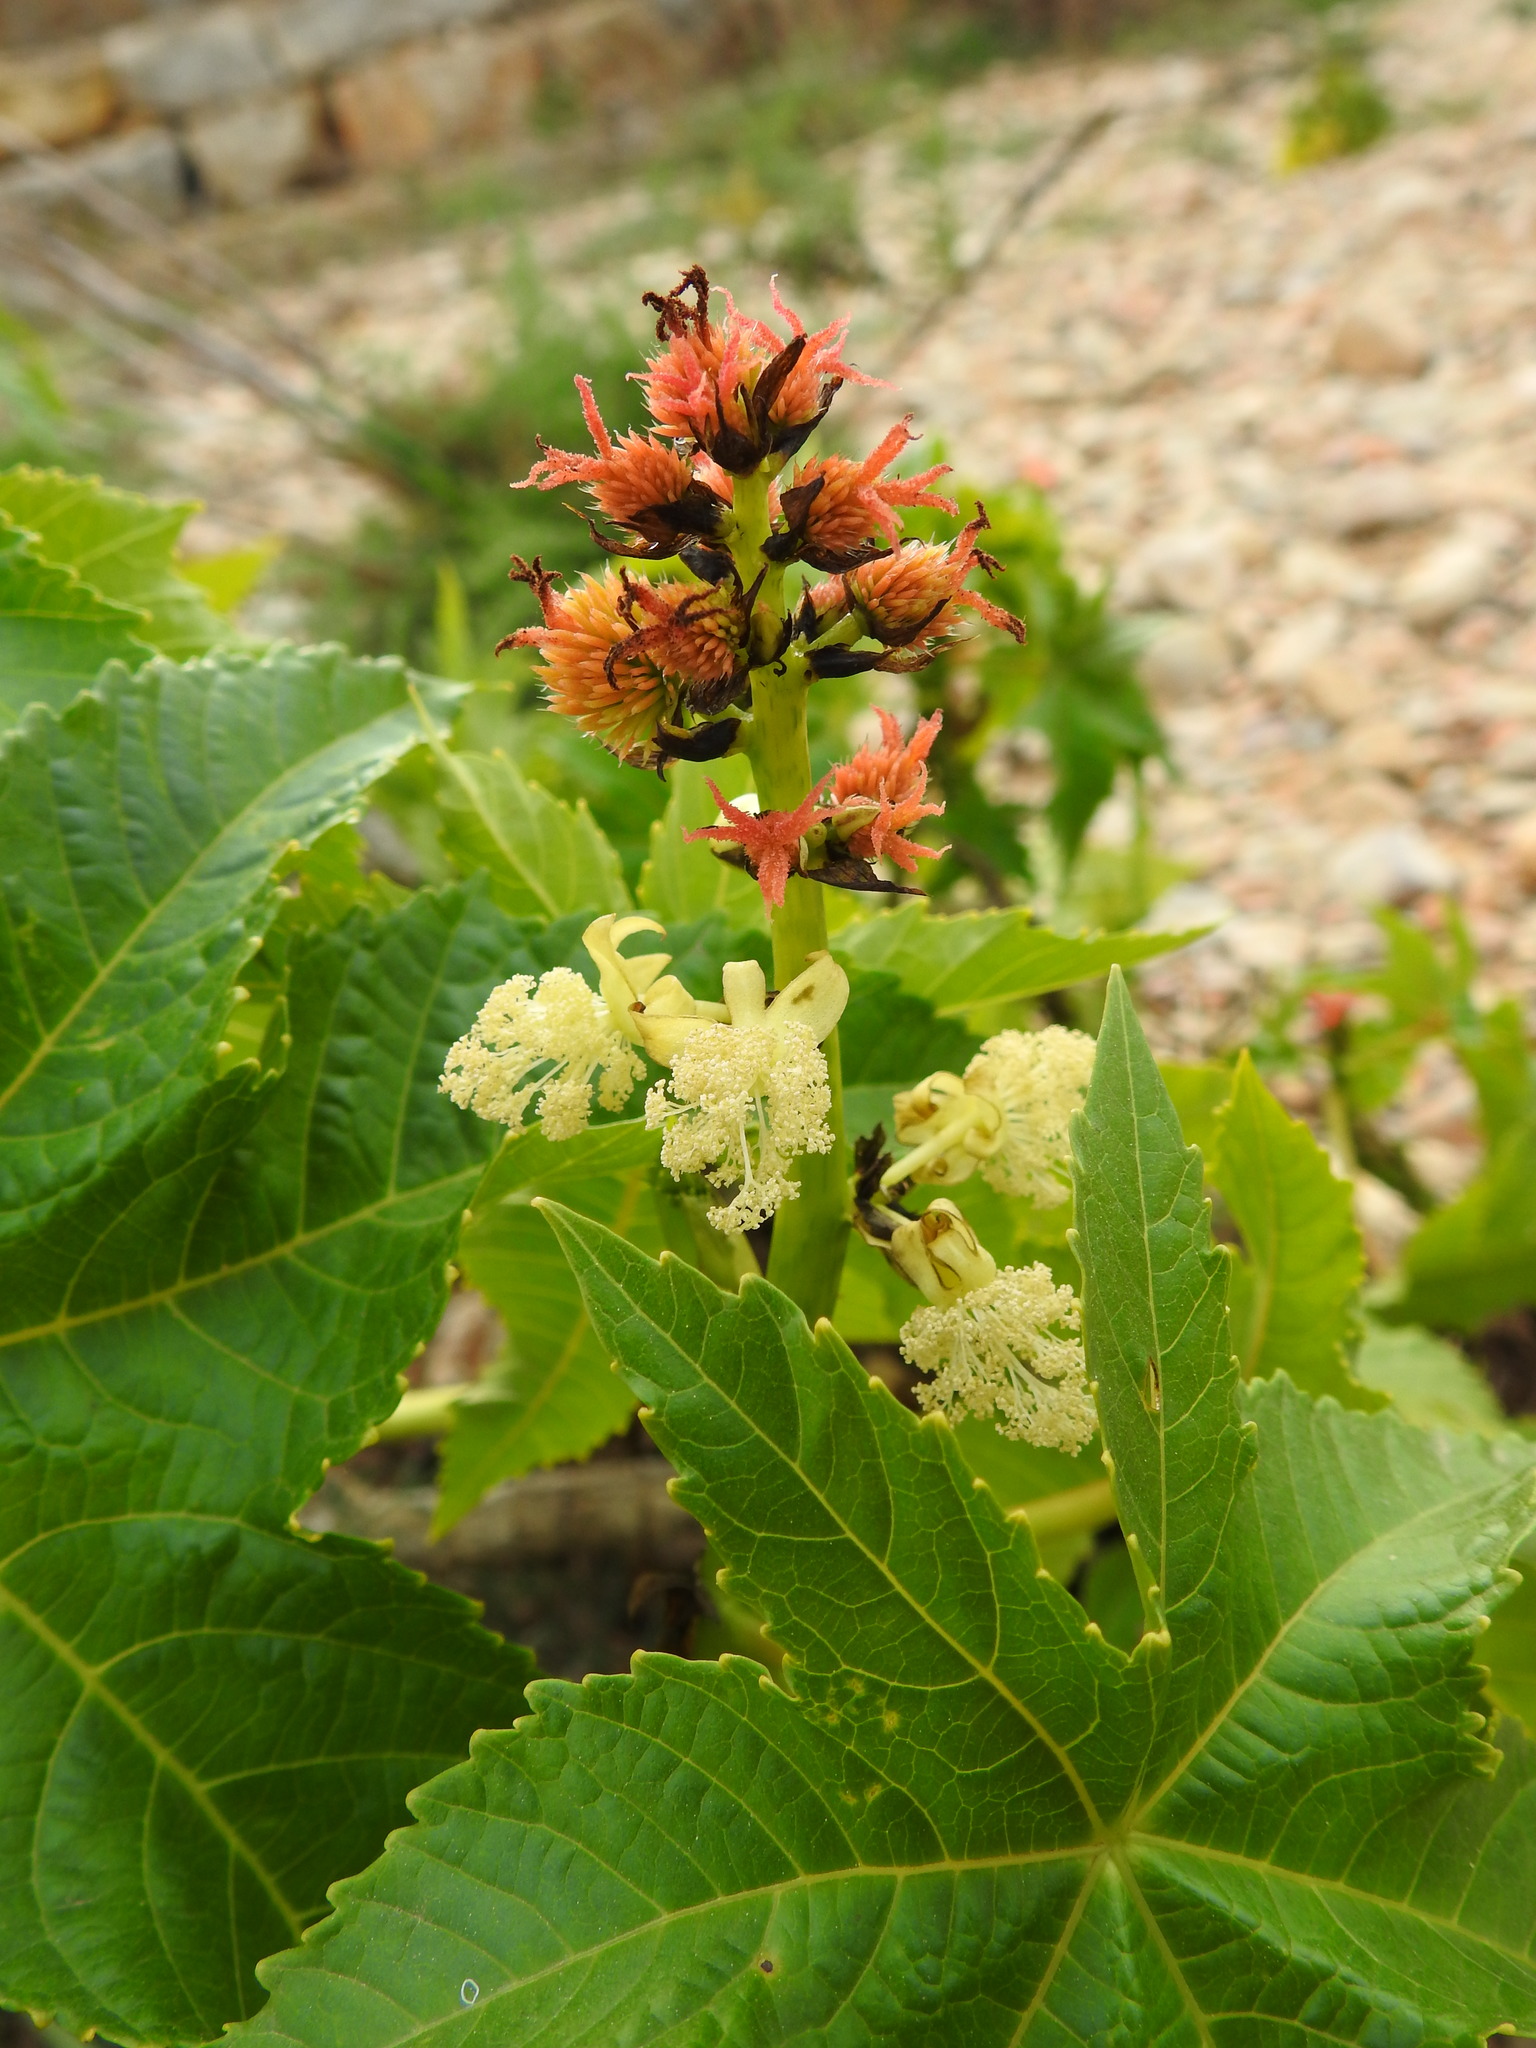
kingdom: Plantae
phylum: Tracheophyta
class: Magnoliopsida
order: Malpighiales
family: Euphorbiaceae
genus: Ricinus
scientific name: Ricinus communis
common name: Castor-oil-plant
